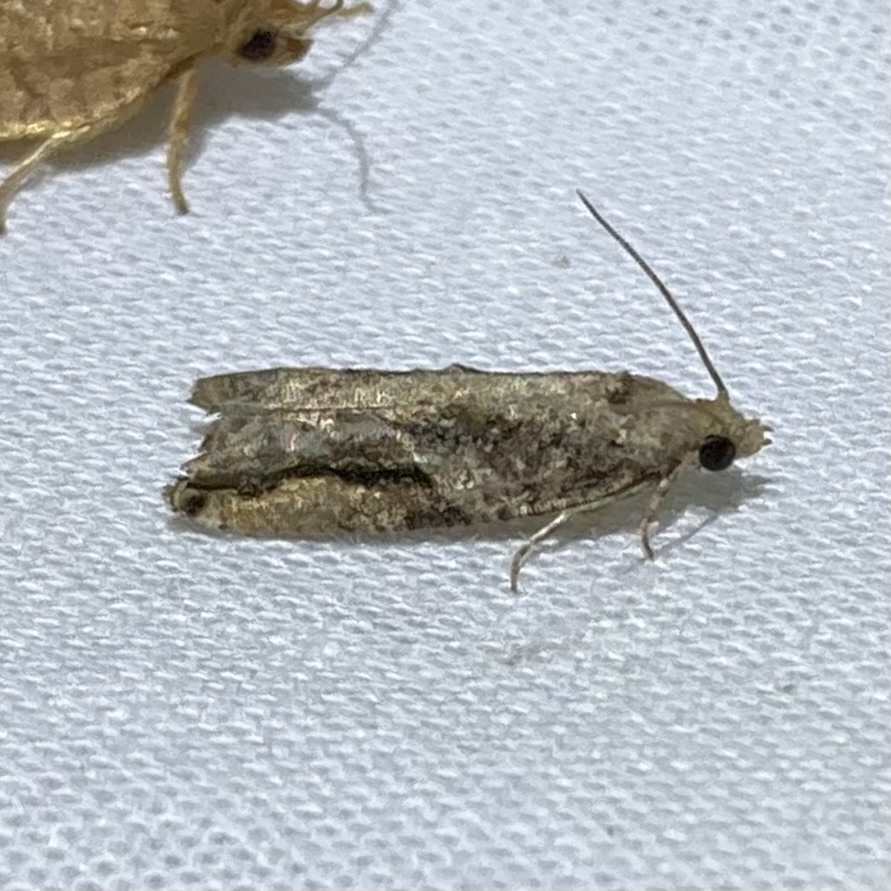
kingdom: Animalia
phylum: Arthropoda
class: Insecta
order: Lepidoptera
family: Tortricidae
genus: Proteoteras
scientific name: Proteoteras crescentana
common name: Black-crescent proteoteras moth
